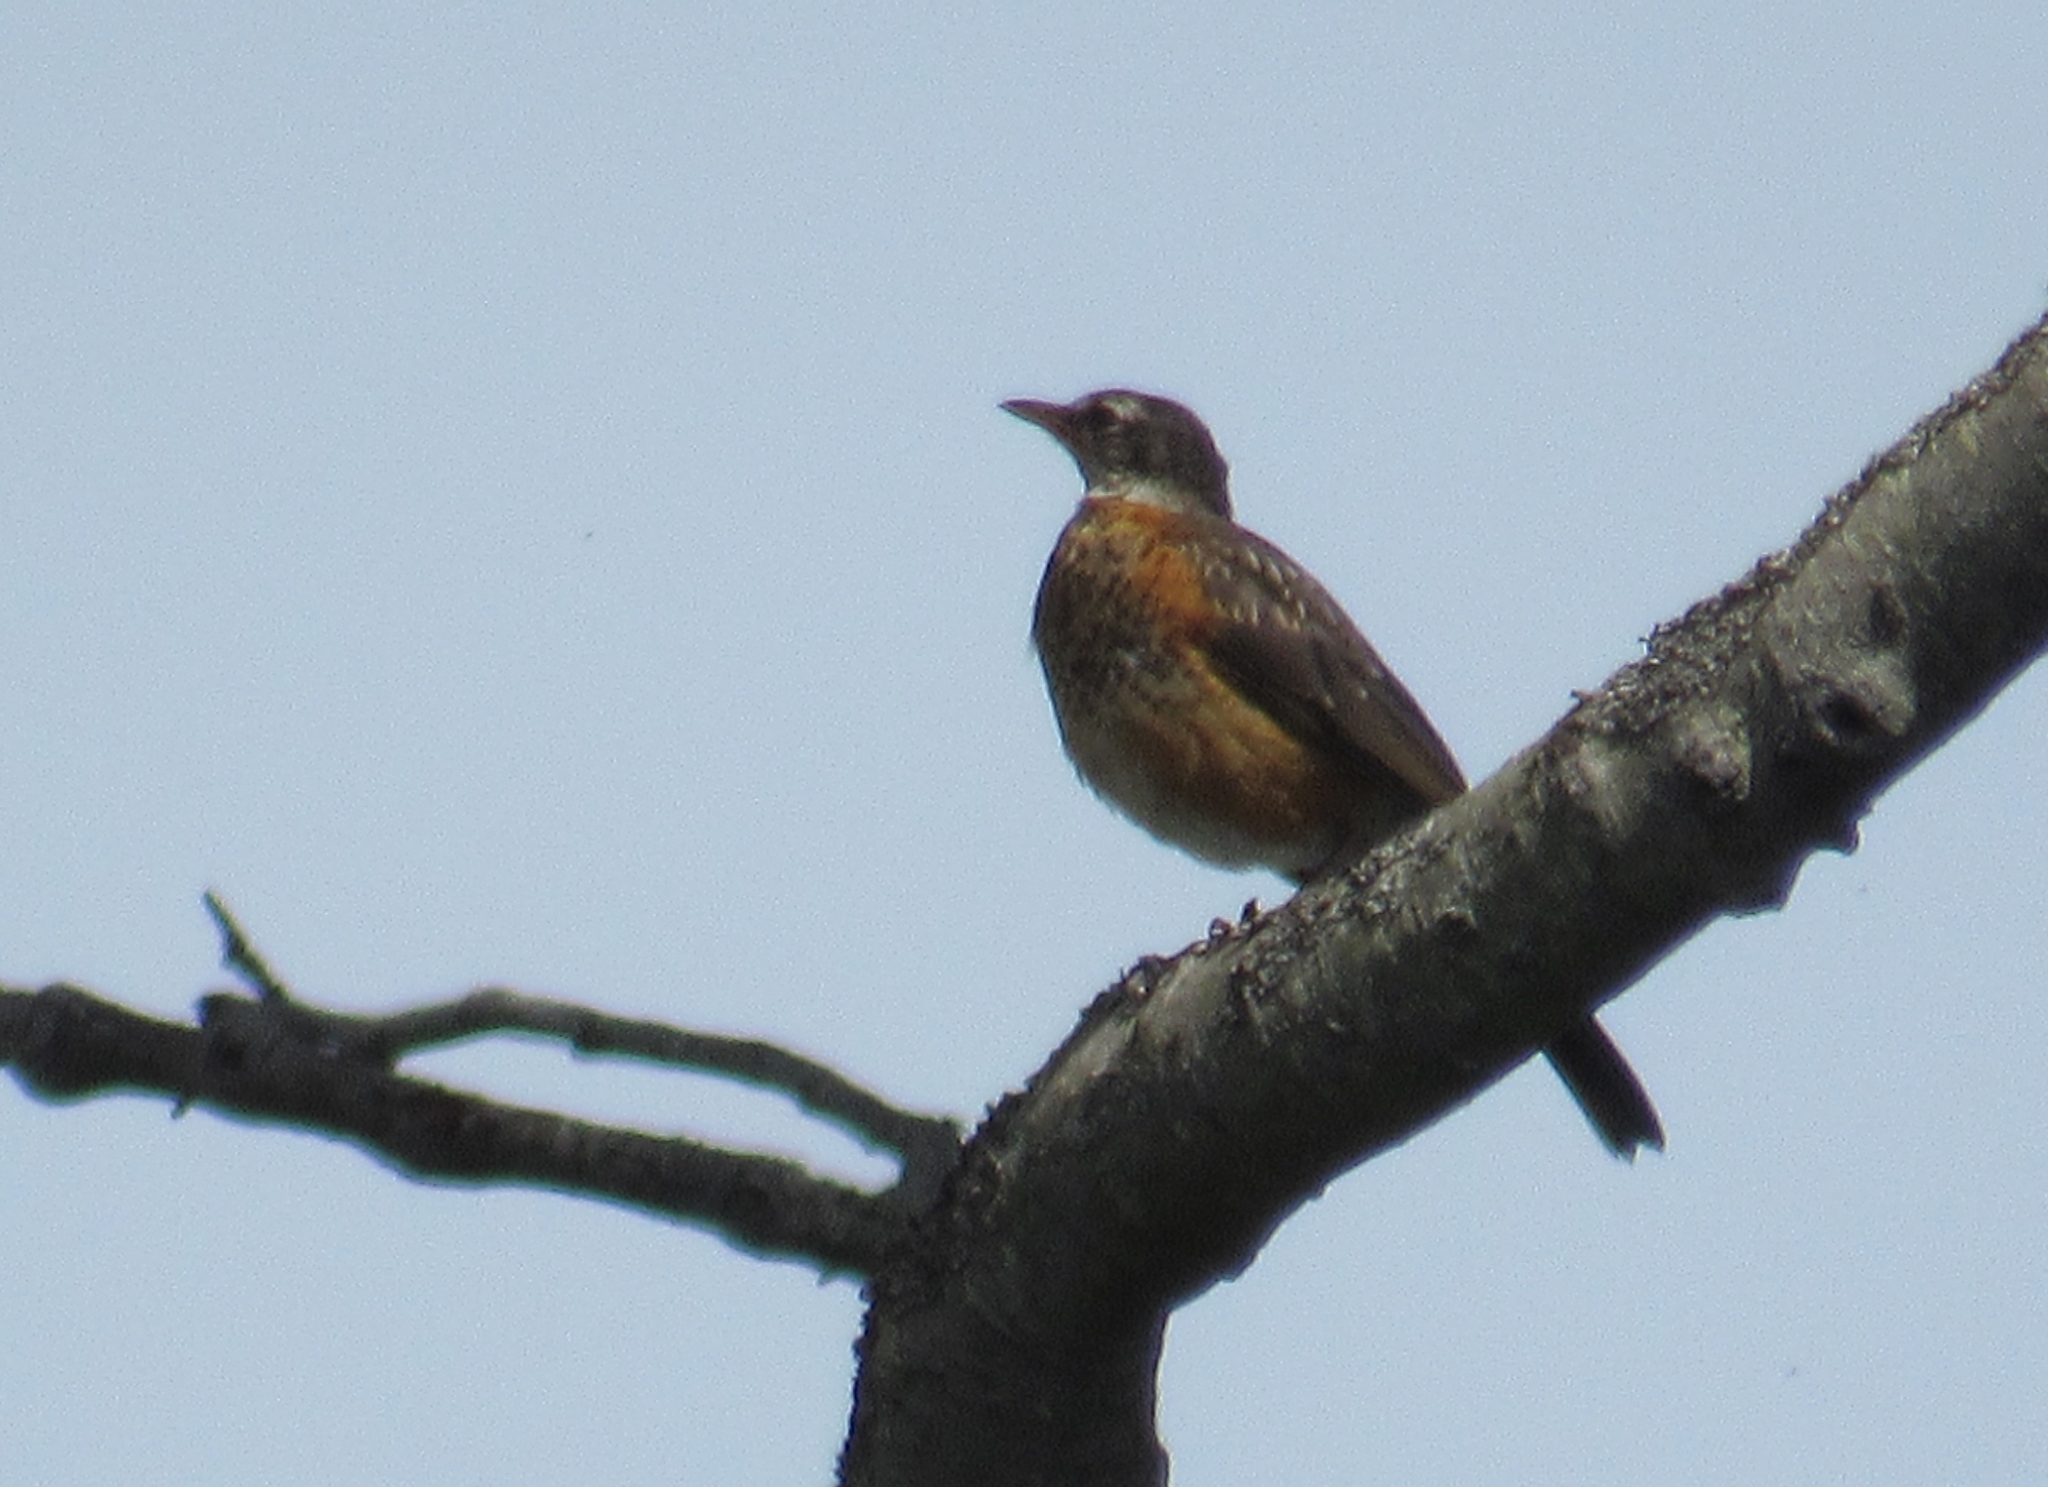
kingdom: Animalia
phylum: Chordata
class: Aves
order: Passeriformes
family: Turdidae
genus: Turdus
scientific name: Turdus migratorius
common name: American robin
